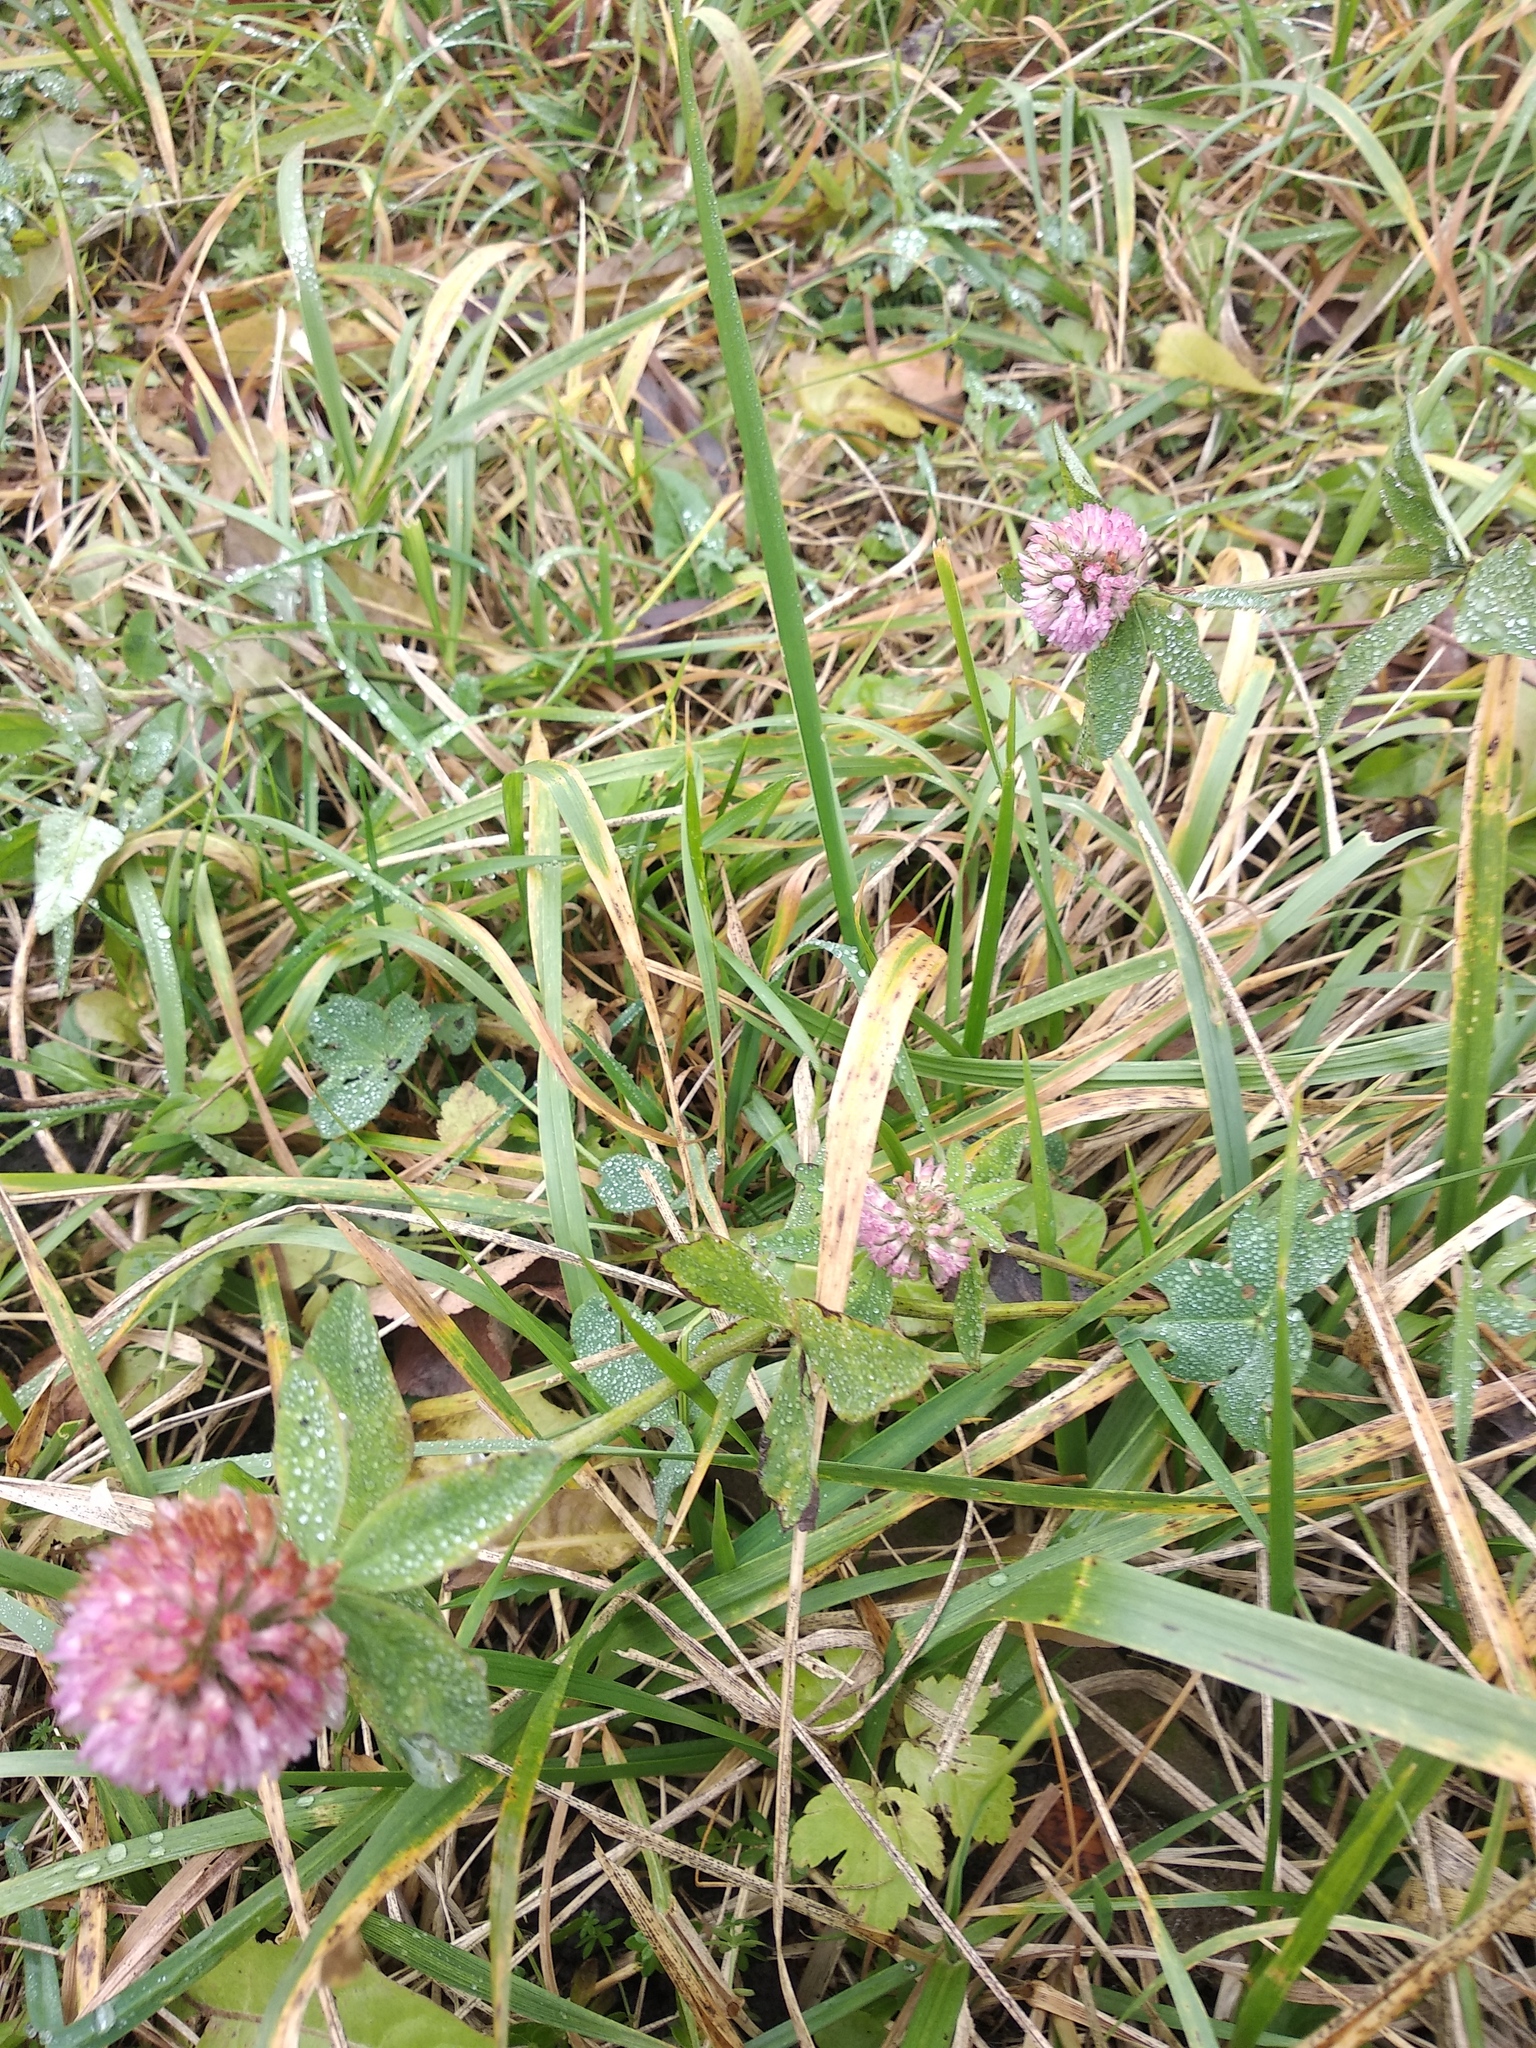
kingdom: Plantae
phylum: Tracheophyta
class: Magnoliopsida
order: Fabales
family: Fabaceae
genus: Trifolium
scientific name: Trifolium pratense
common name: Red clover
